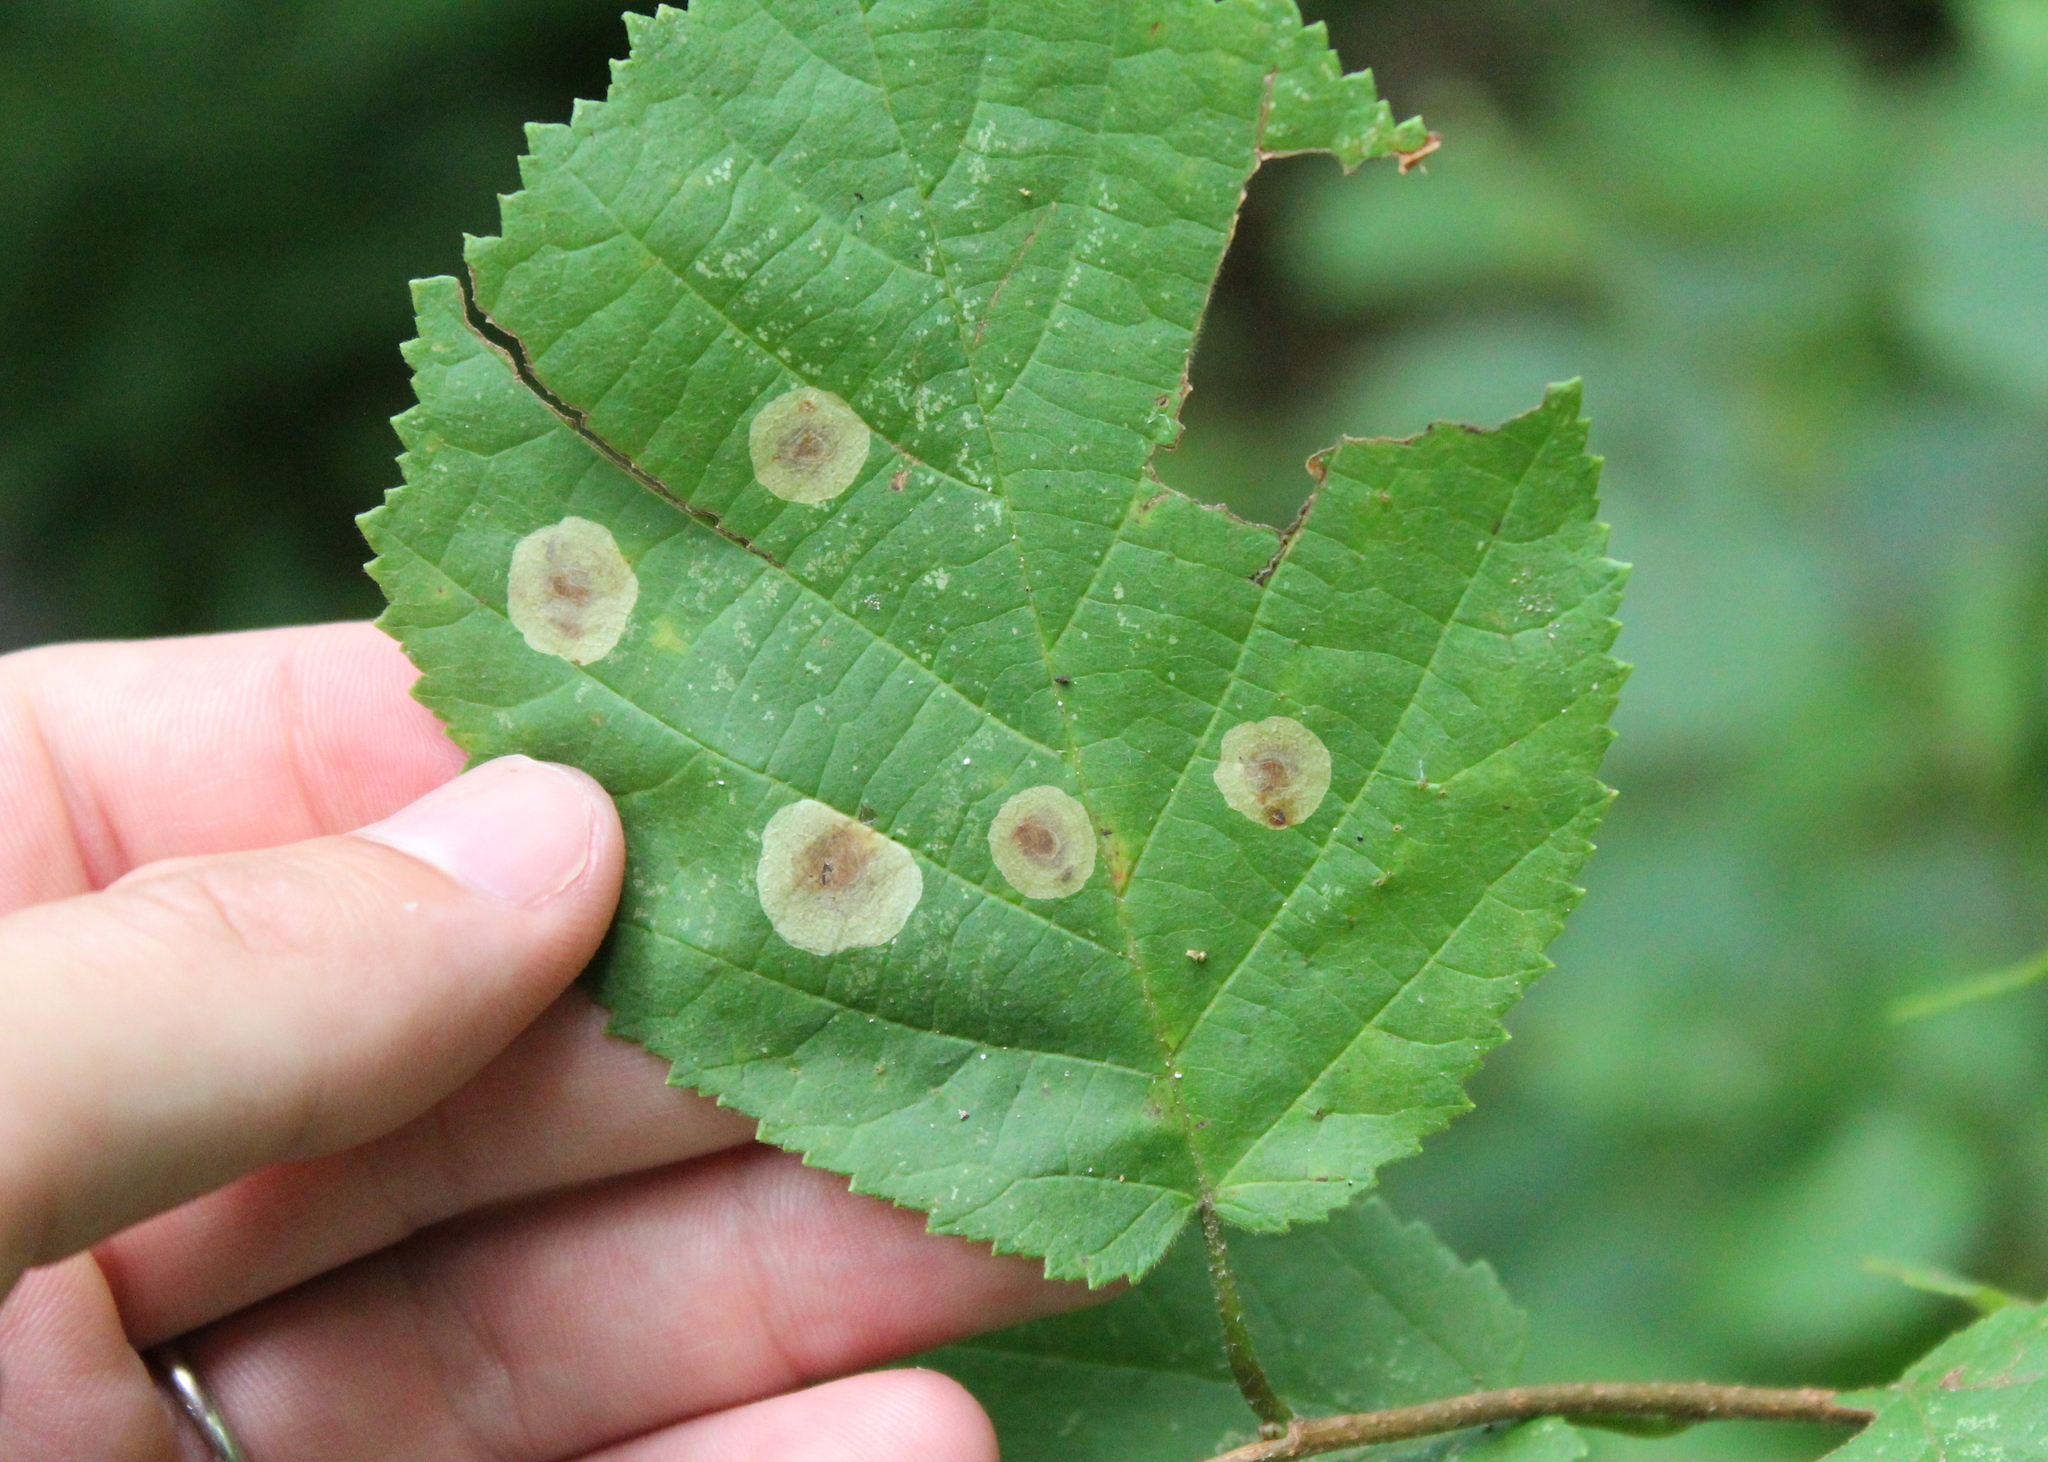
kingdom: Animalia
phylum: Arthropoda
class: Insecta
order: Lepidoptera
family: Gracillariidae
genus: Cameraria
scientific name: Cameraria corylisella
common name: Hazel blotchminer
